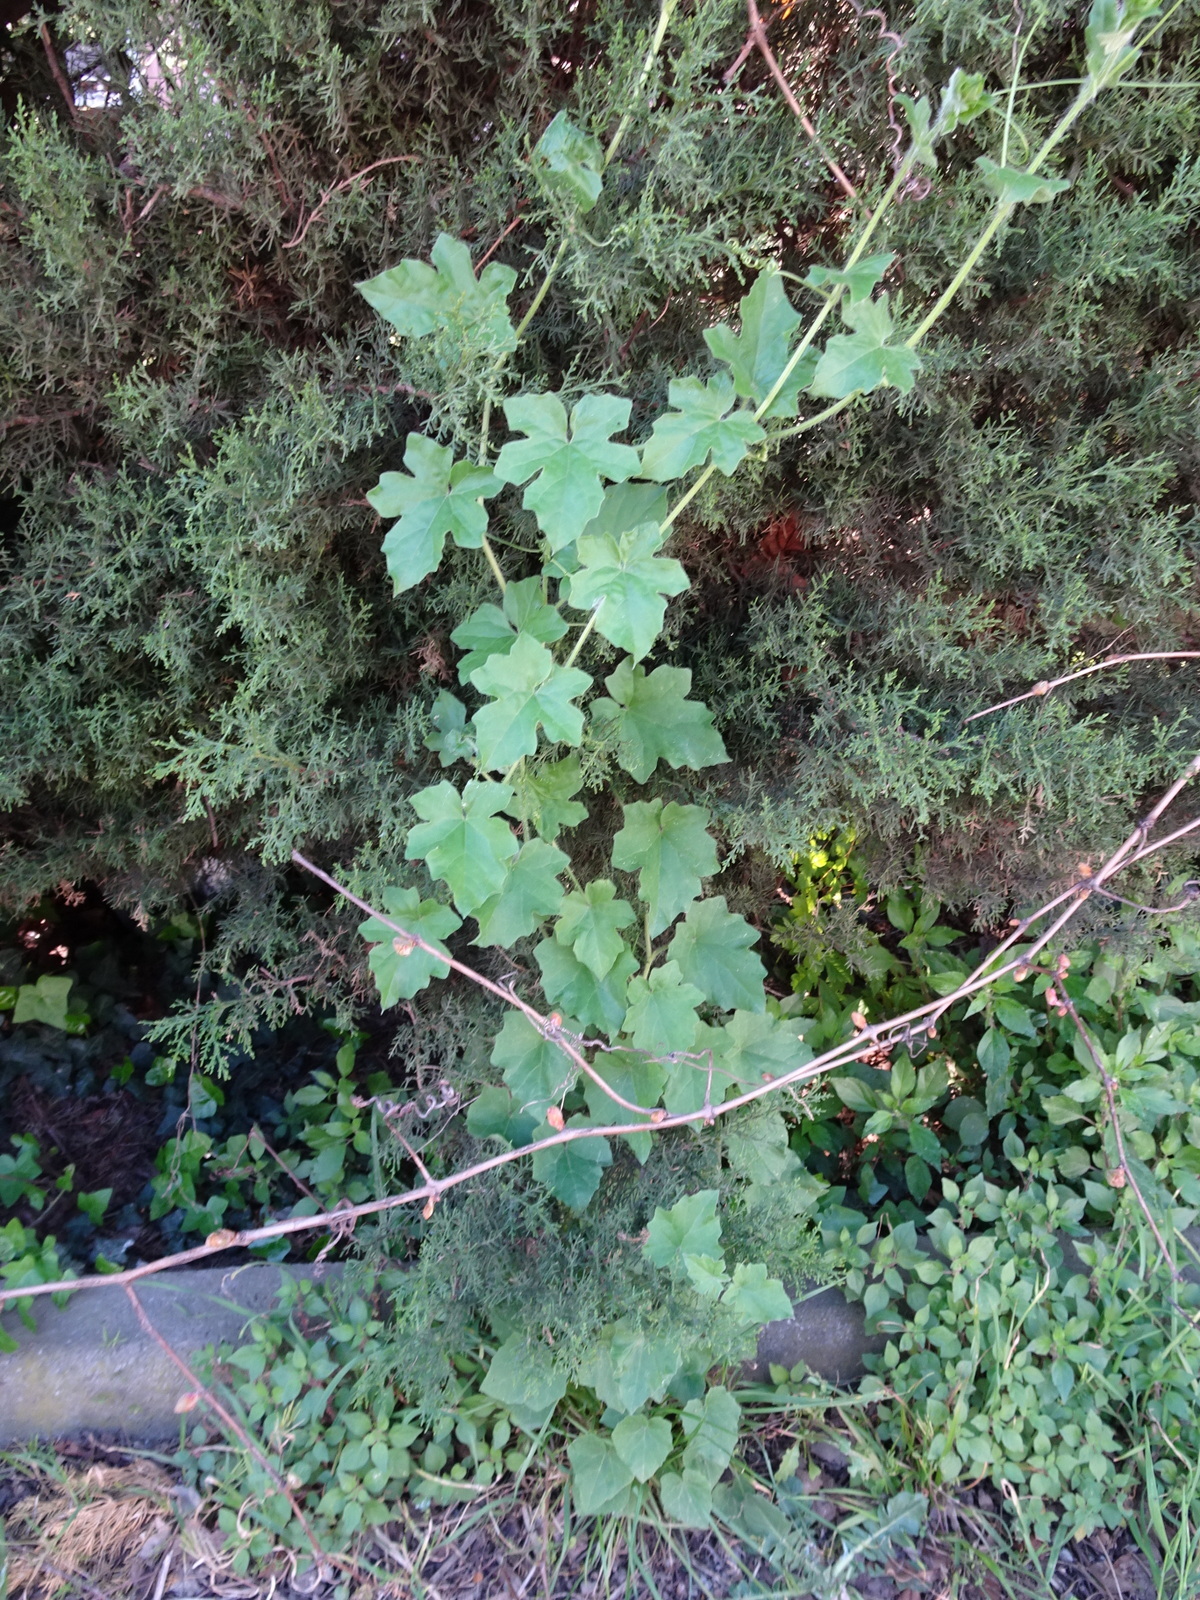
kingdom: Plantae
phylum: Tracheophyta
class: Magnoliopsida
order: Cucurbitales
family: Cucurbitaceae
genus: Bryonia
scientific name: Bryonia dioica
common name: White bryony
